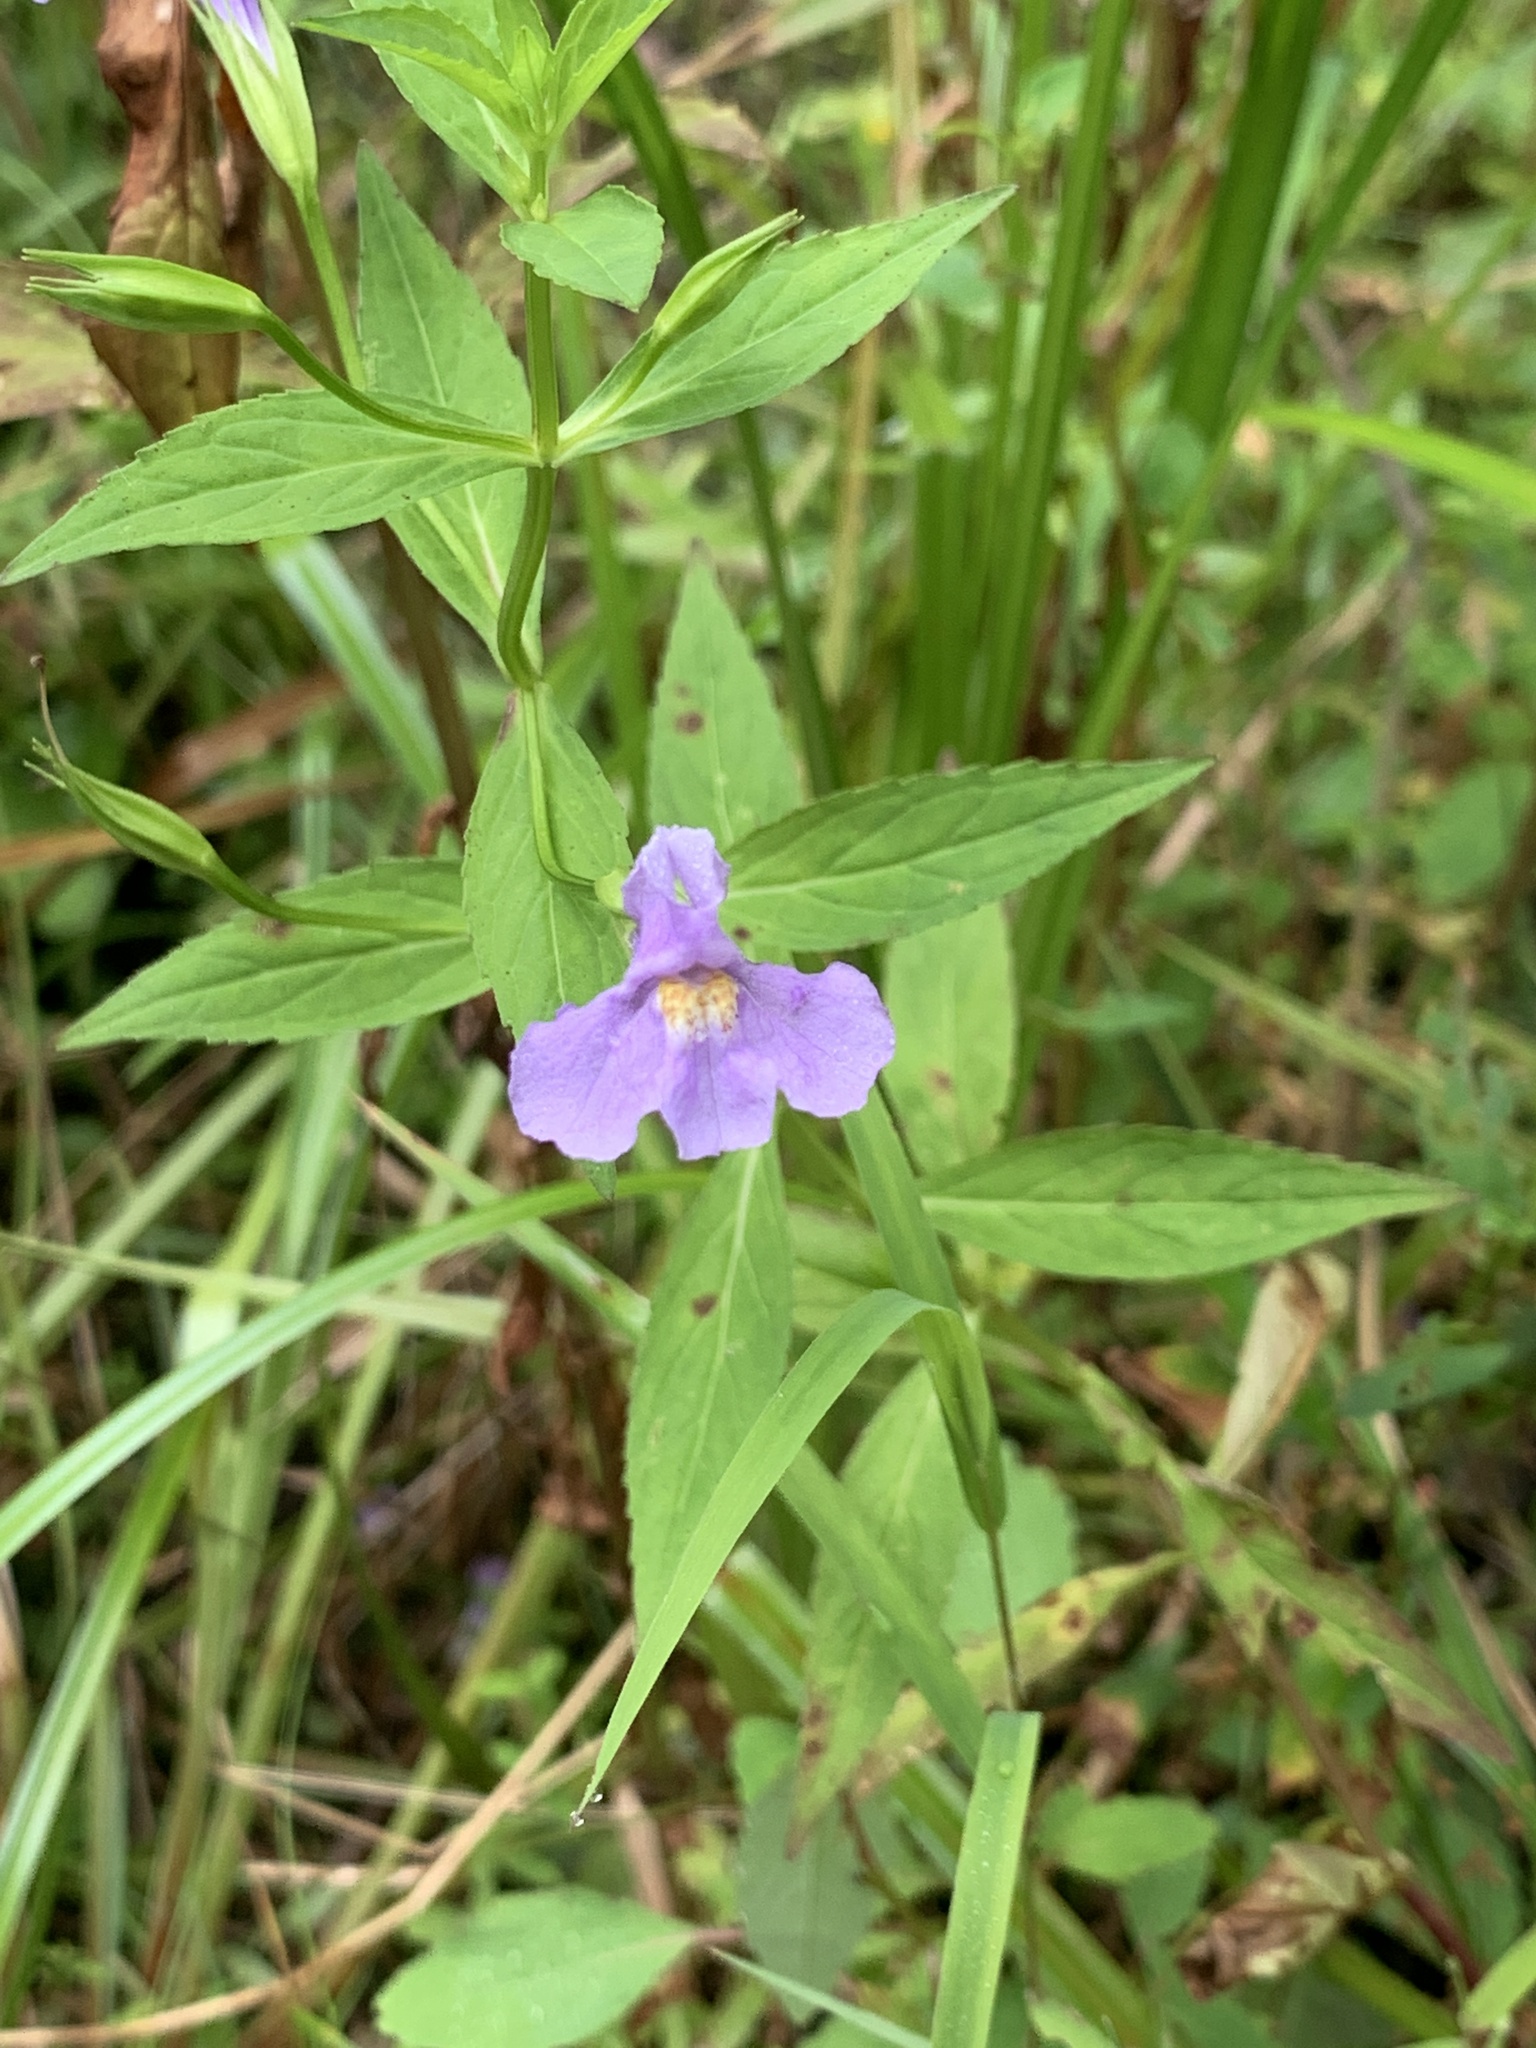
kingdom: Plantae
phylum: Tracheophyta
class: Magnoliopsida
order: Lamiales
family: Phrymaceae
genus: Mimulus
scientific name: Mimulus ringens
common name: Allegheny monkeyflower
